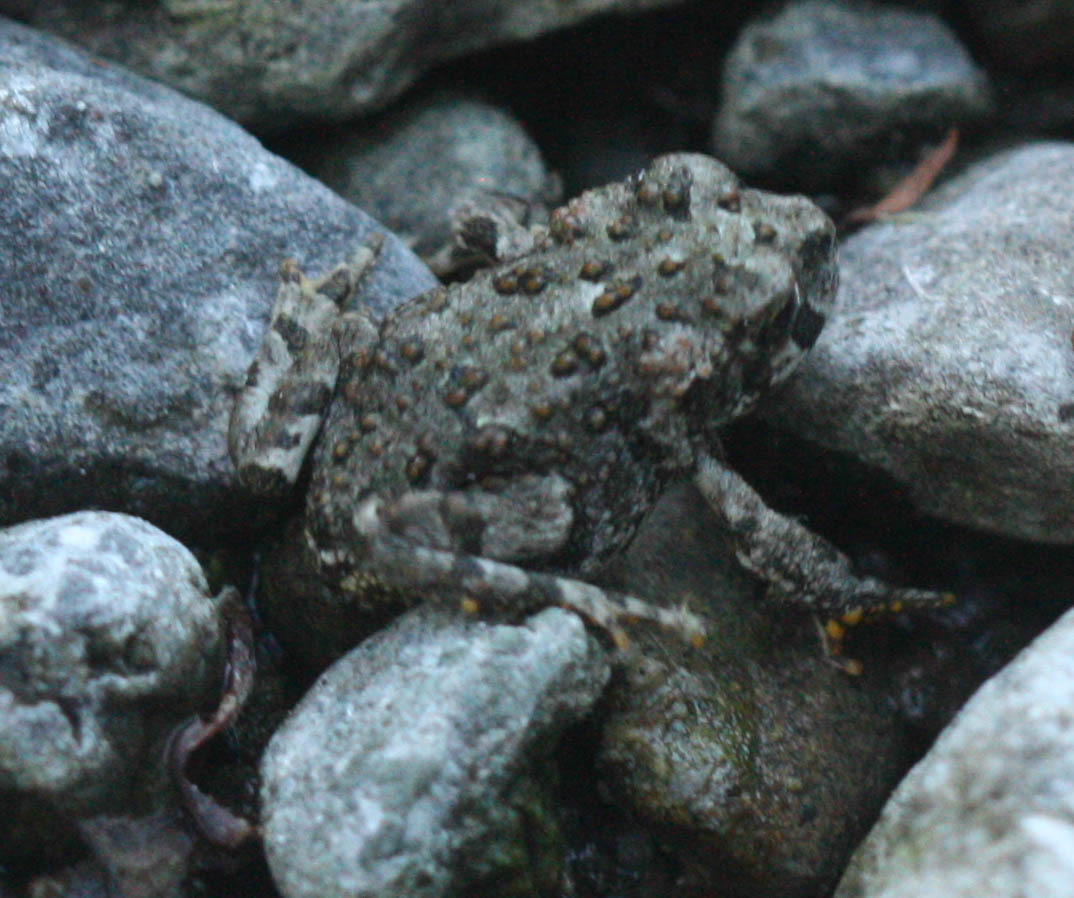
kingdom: Animalia
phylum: Chordata
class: Amphibia
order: Anura
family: Bufonidae
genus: Anaxyrus
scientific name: Anaxyrus boreas
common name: Western toad
